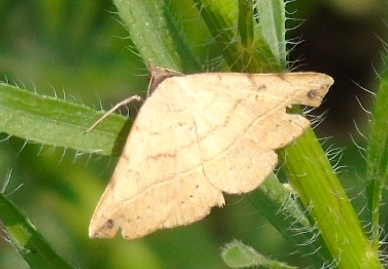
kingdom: Animalia
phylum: Arthropoda
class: Insecta
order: Lepidoptera
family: Erebidae
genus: Hemeroplanis
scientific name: Hemeroplanis
